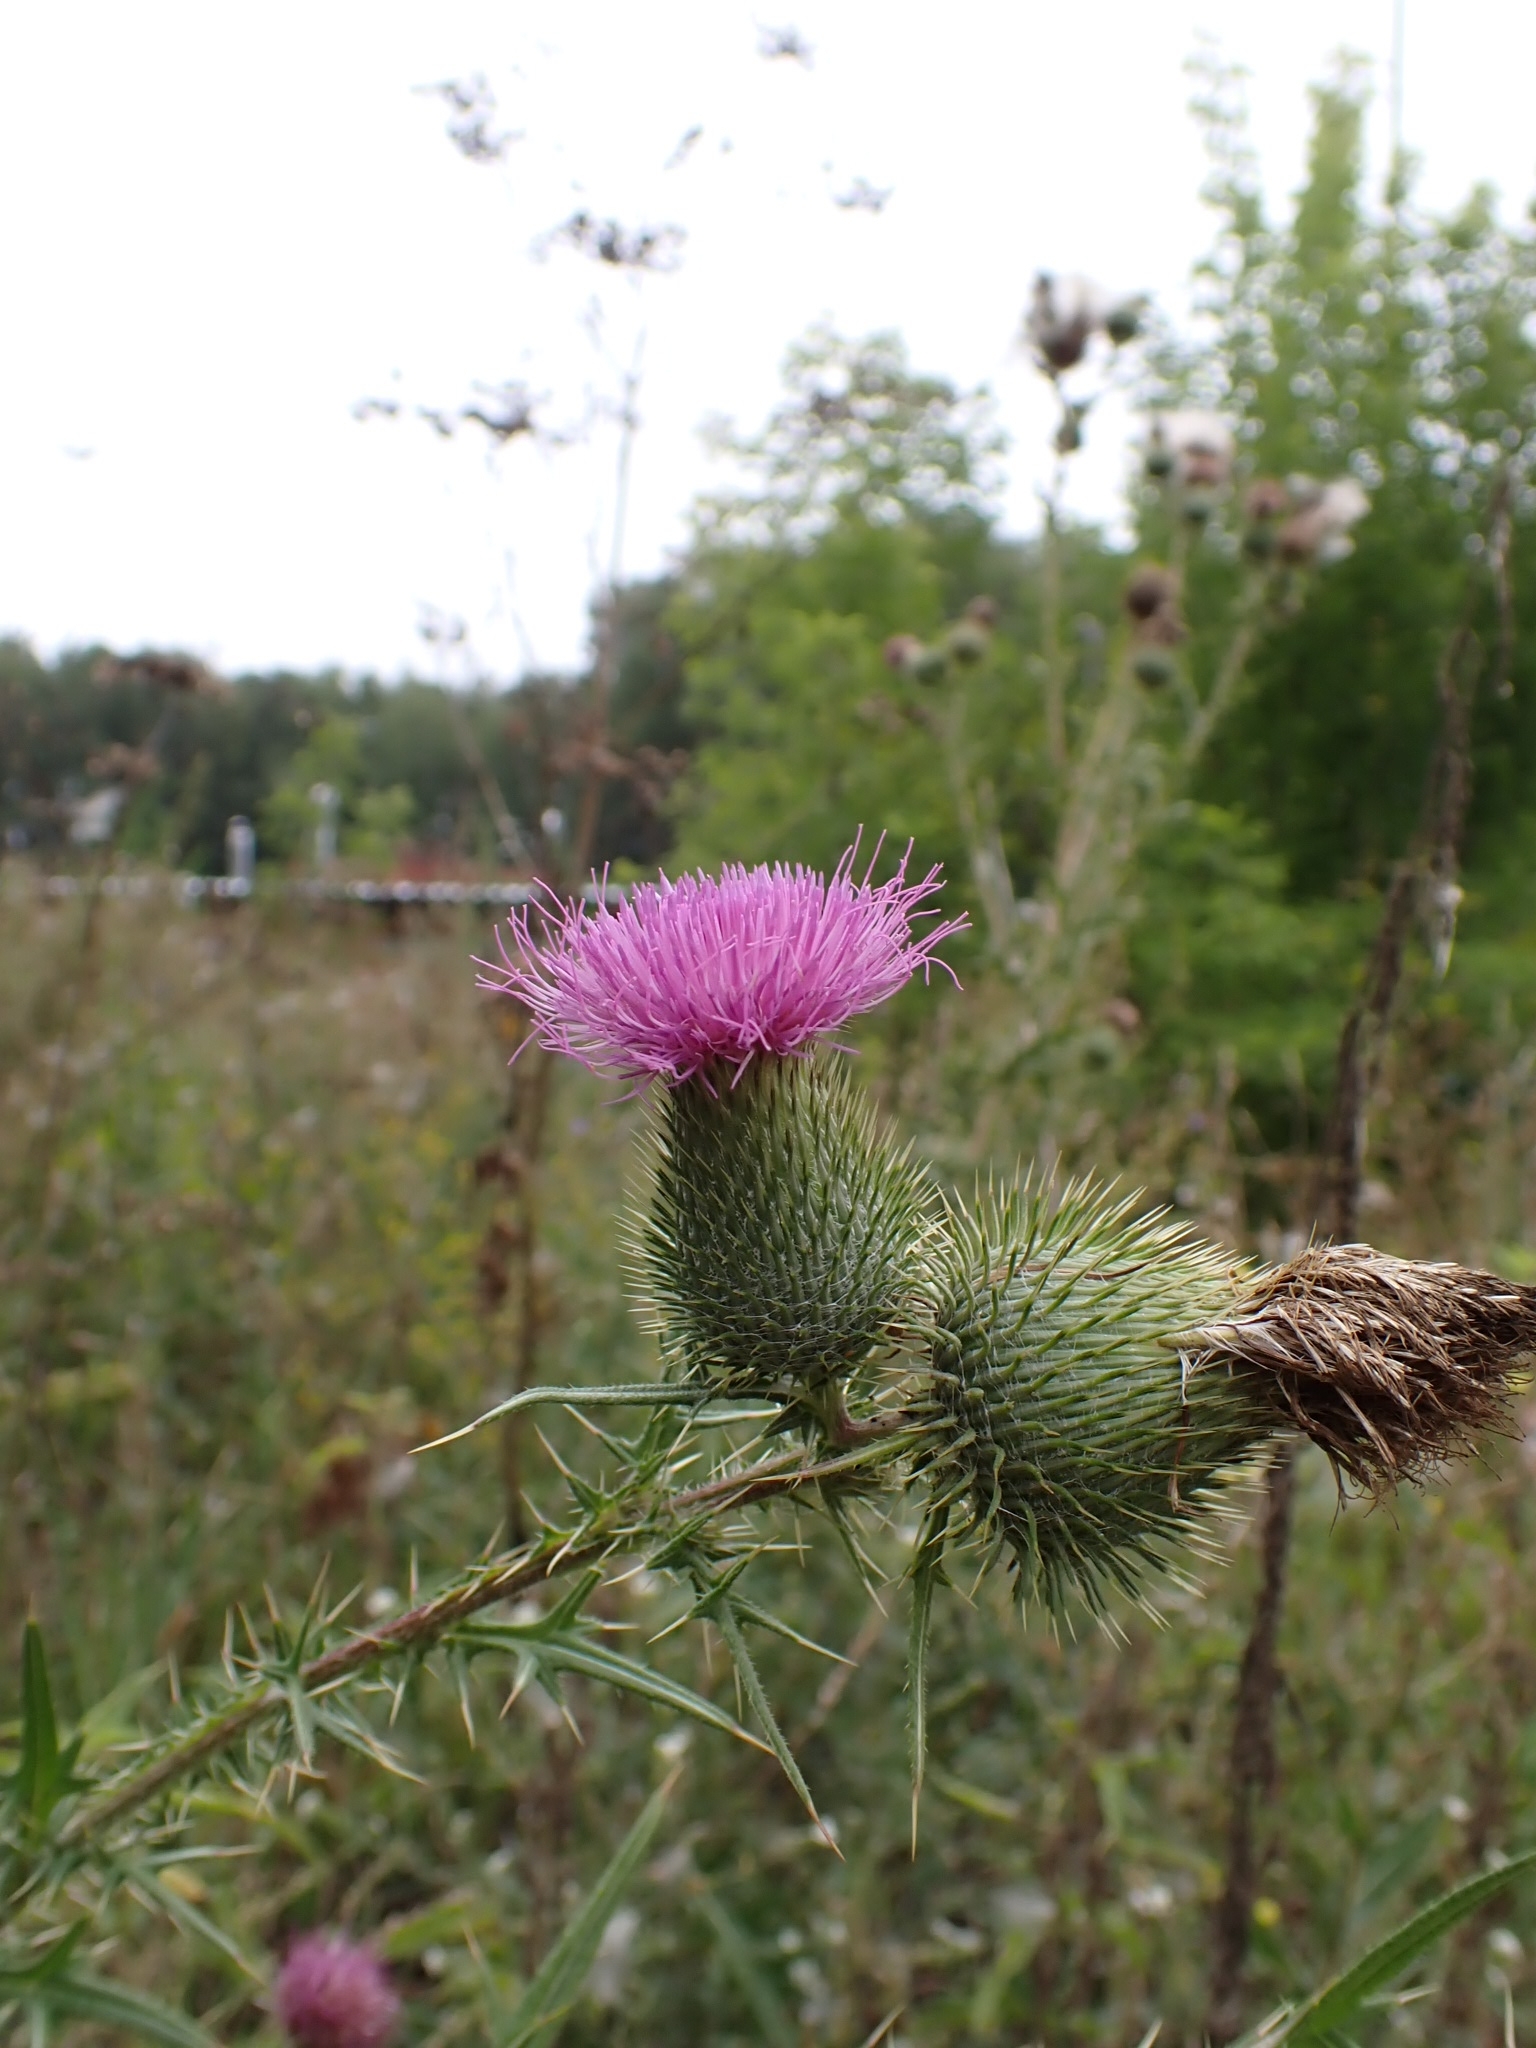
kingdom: Plantae
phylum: Tracheophyta
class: Magnoliopsida
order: Asterales
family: Asteraceae
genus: Cirsium
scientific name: Cirsium vulgare
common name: Bull thistle
